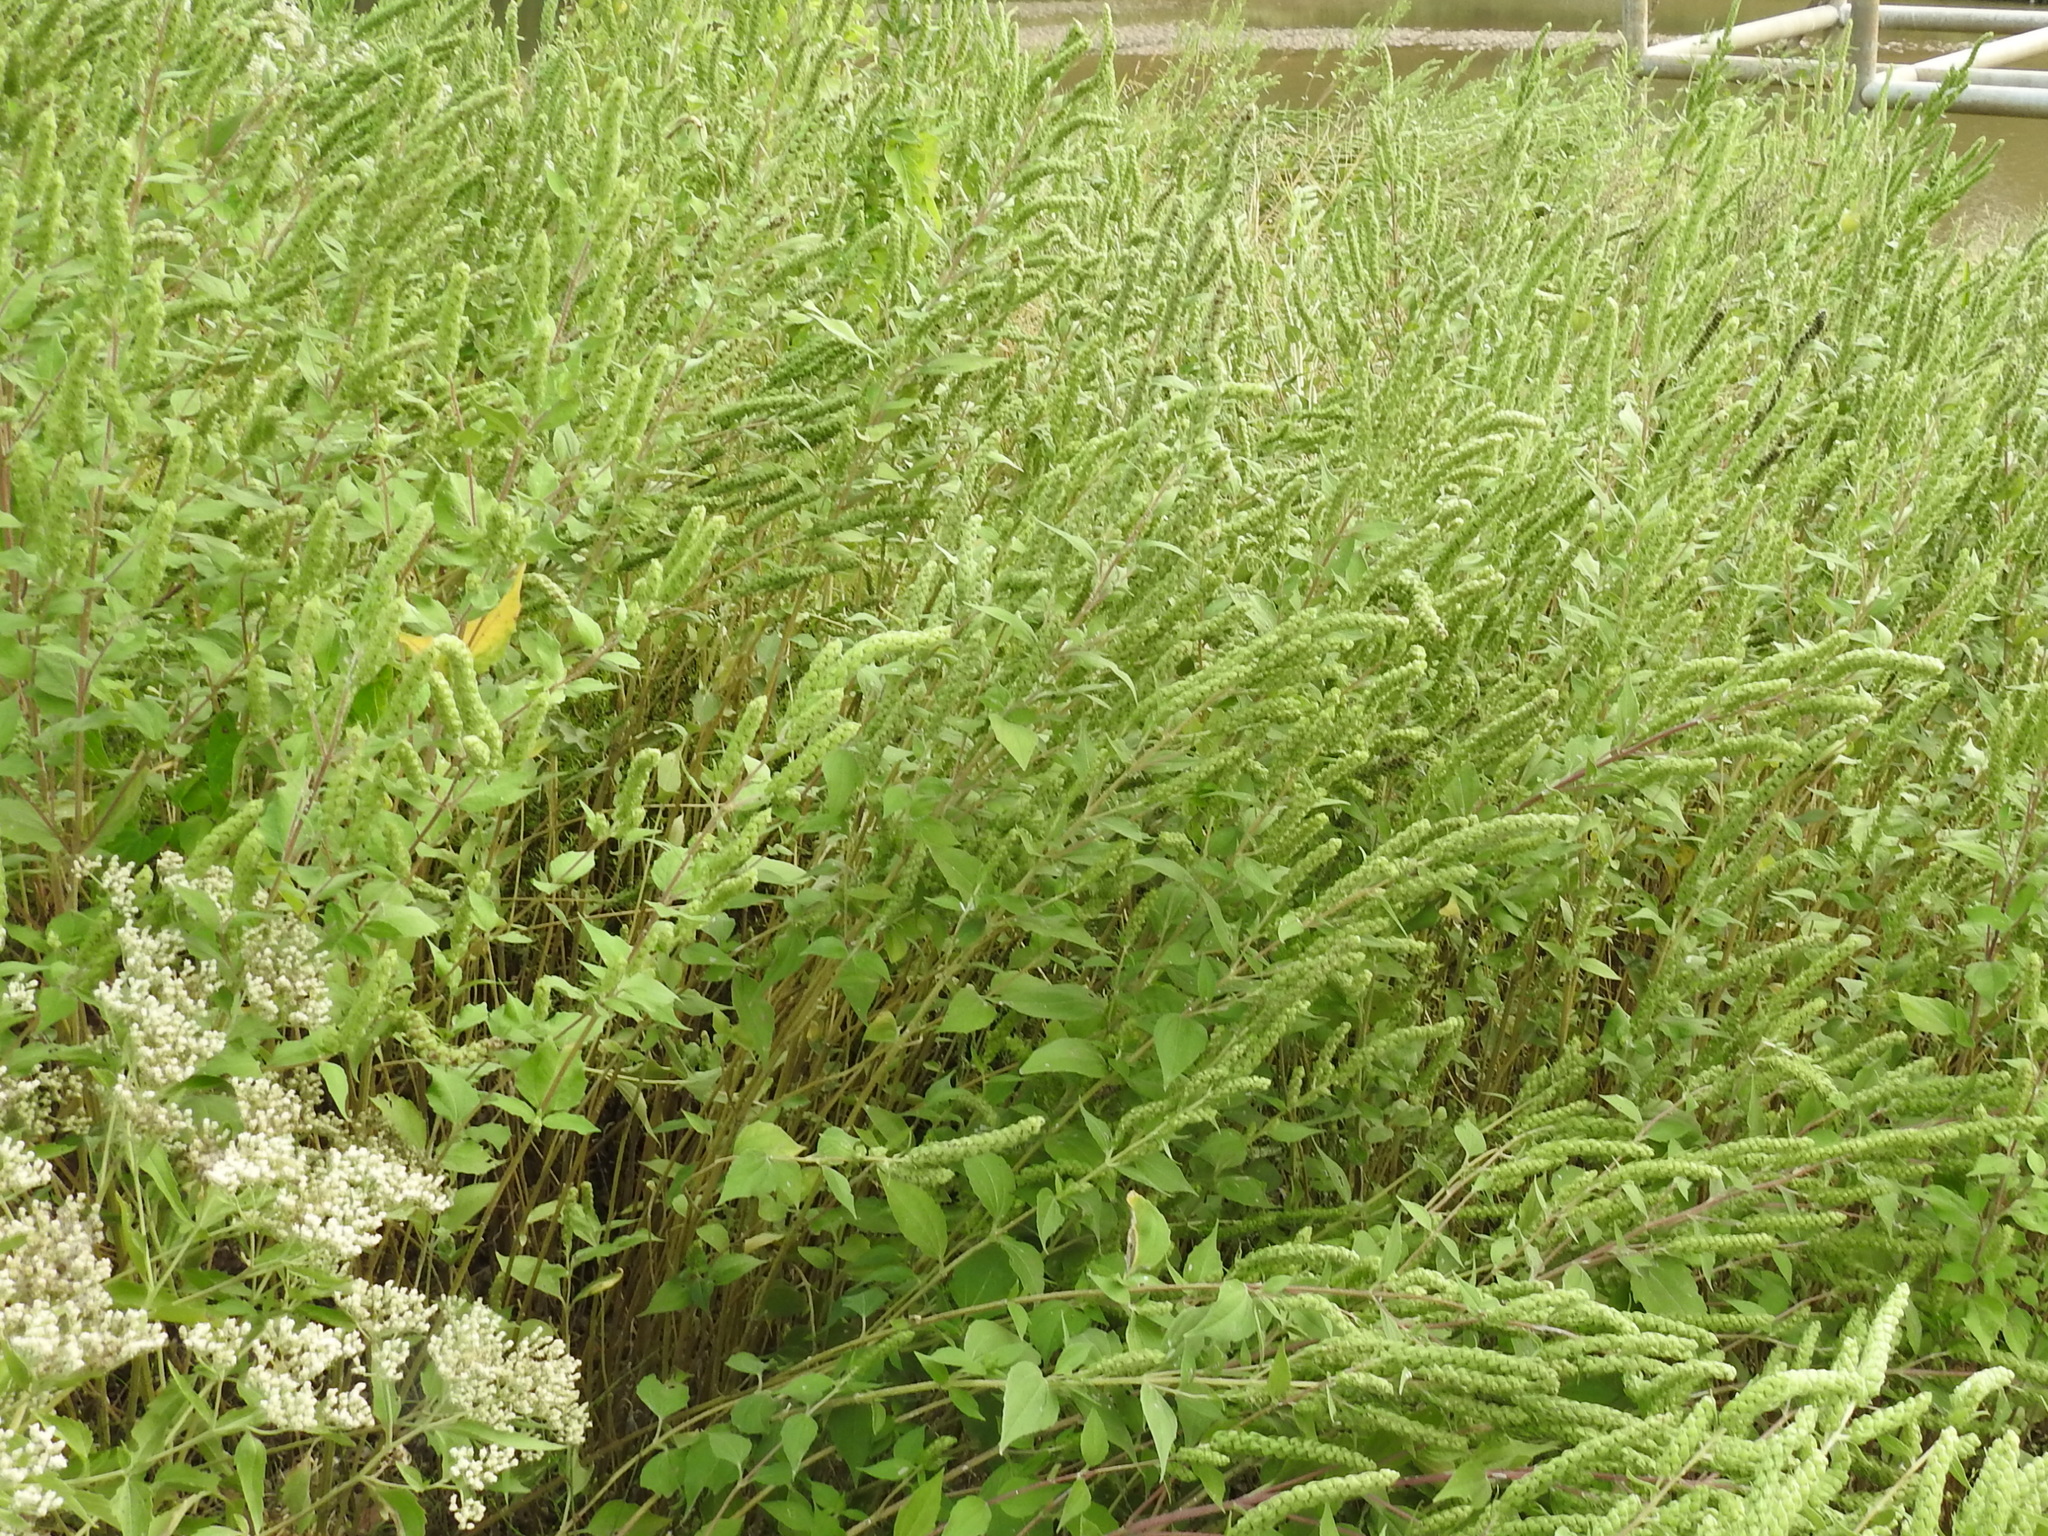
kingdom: Plantae
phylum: Tracheophyta
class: Magnoliopsida
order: Asterales
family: Asteraceae
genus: Iva
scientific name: Iva annua
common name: Marsh-elder
